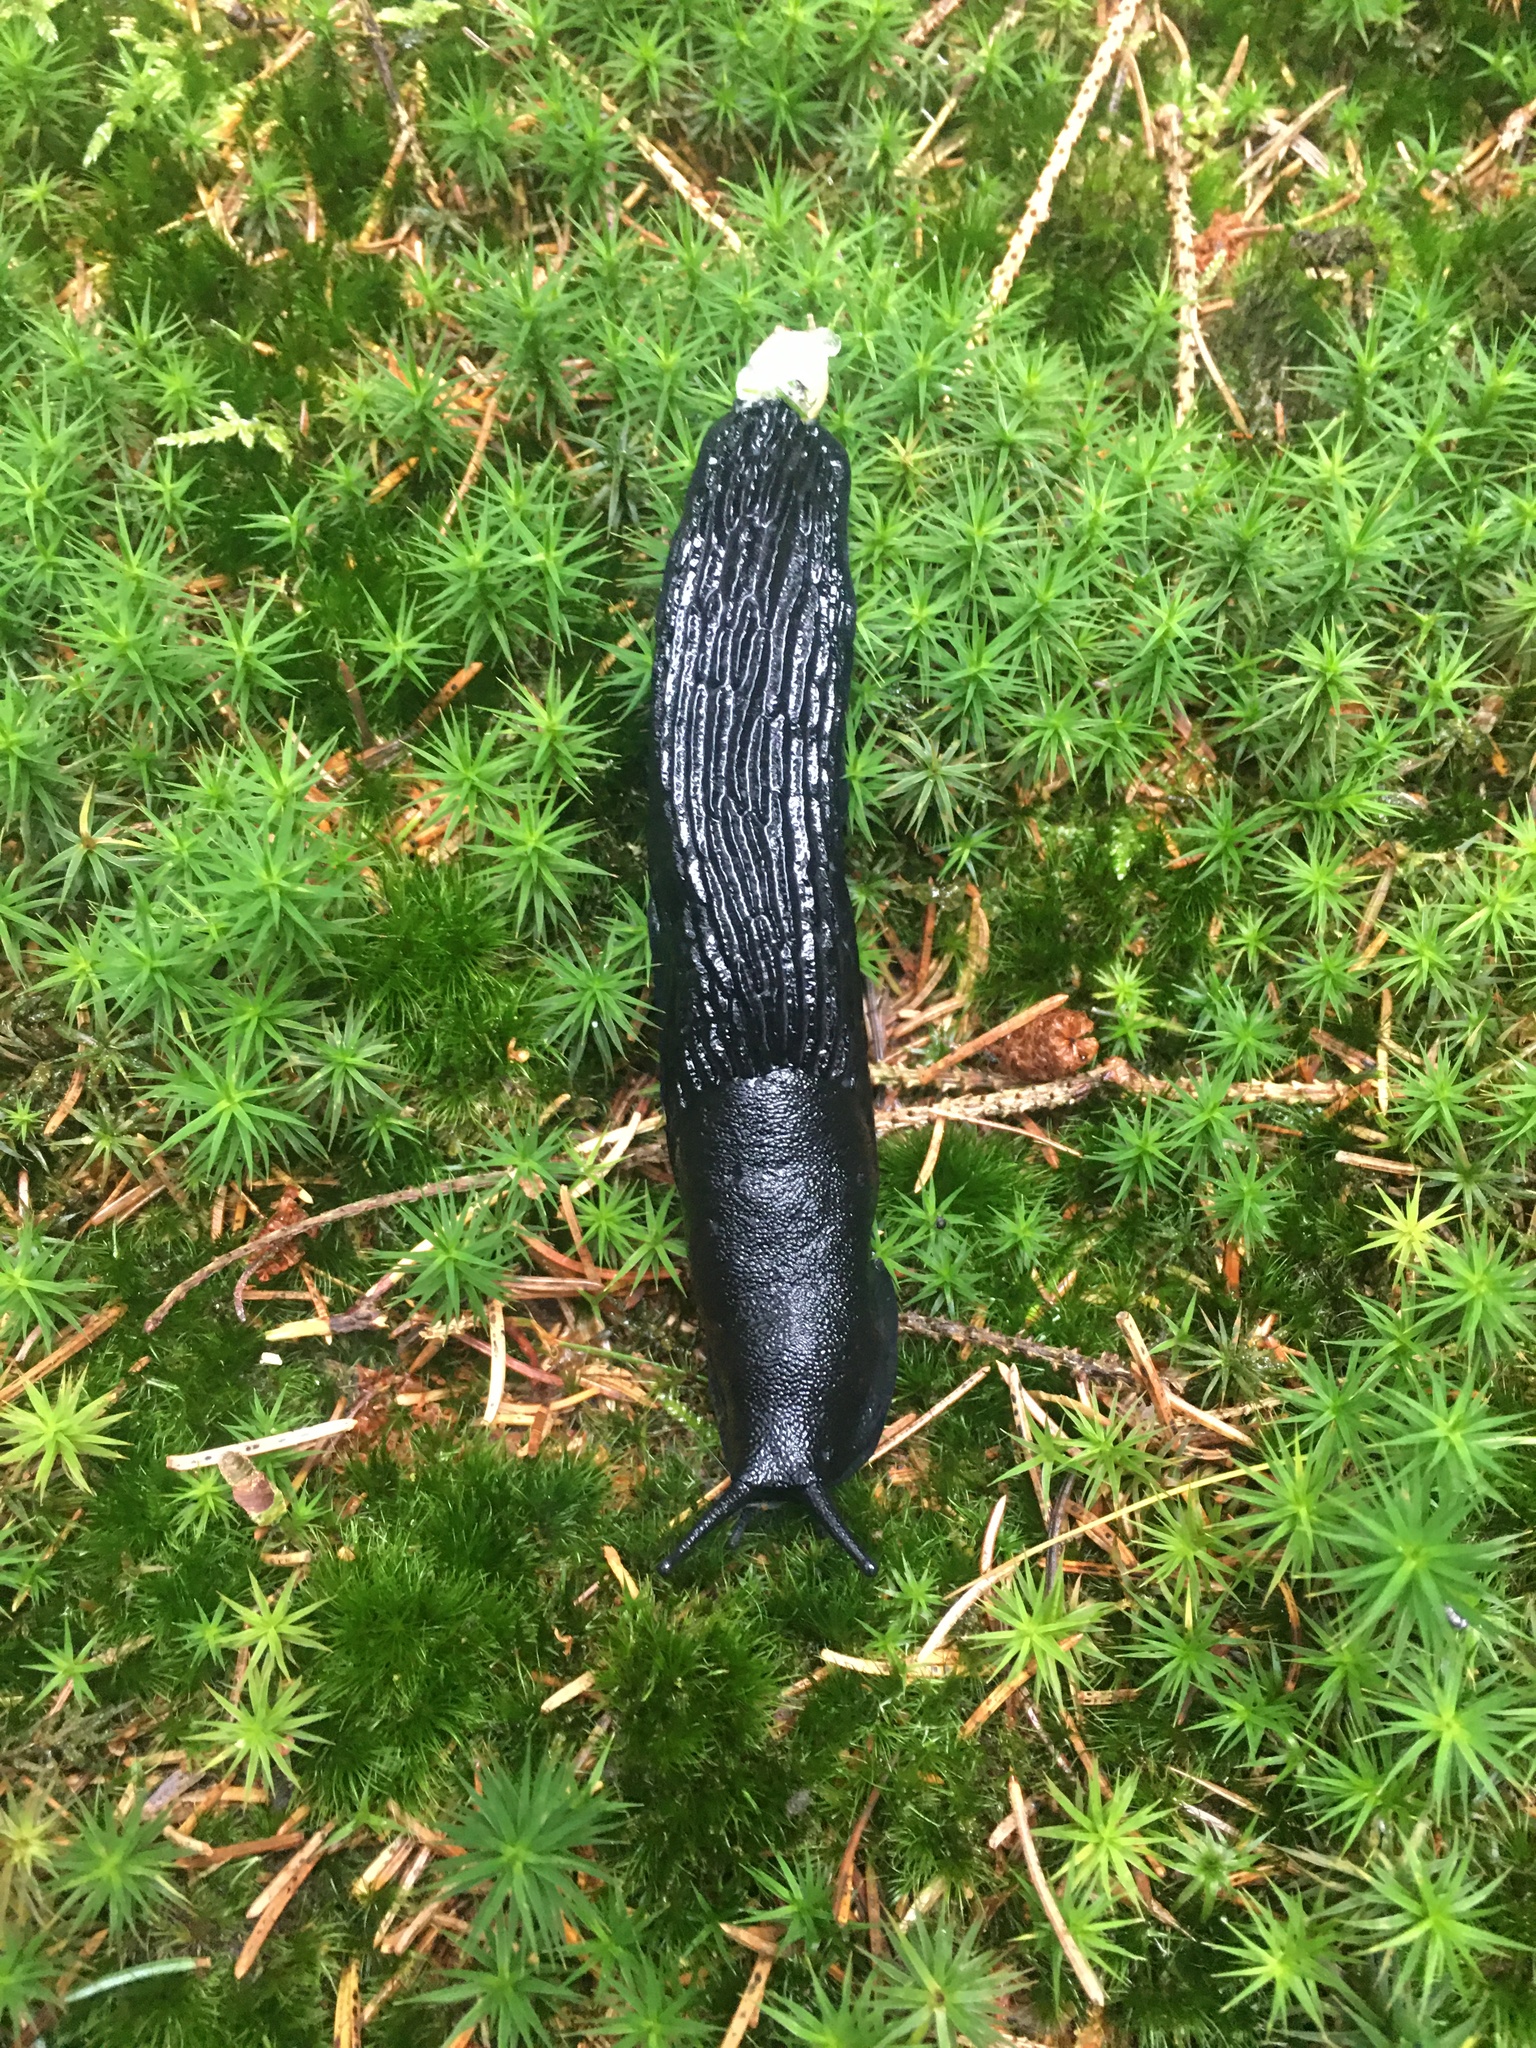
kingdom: Animalia
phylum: Mollusca
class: Gastropoda
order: Stylommatophora
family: Arionidae
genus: Arion
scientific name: Arion ater
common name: Black arion
